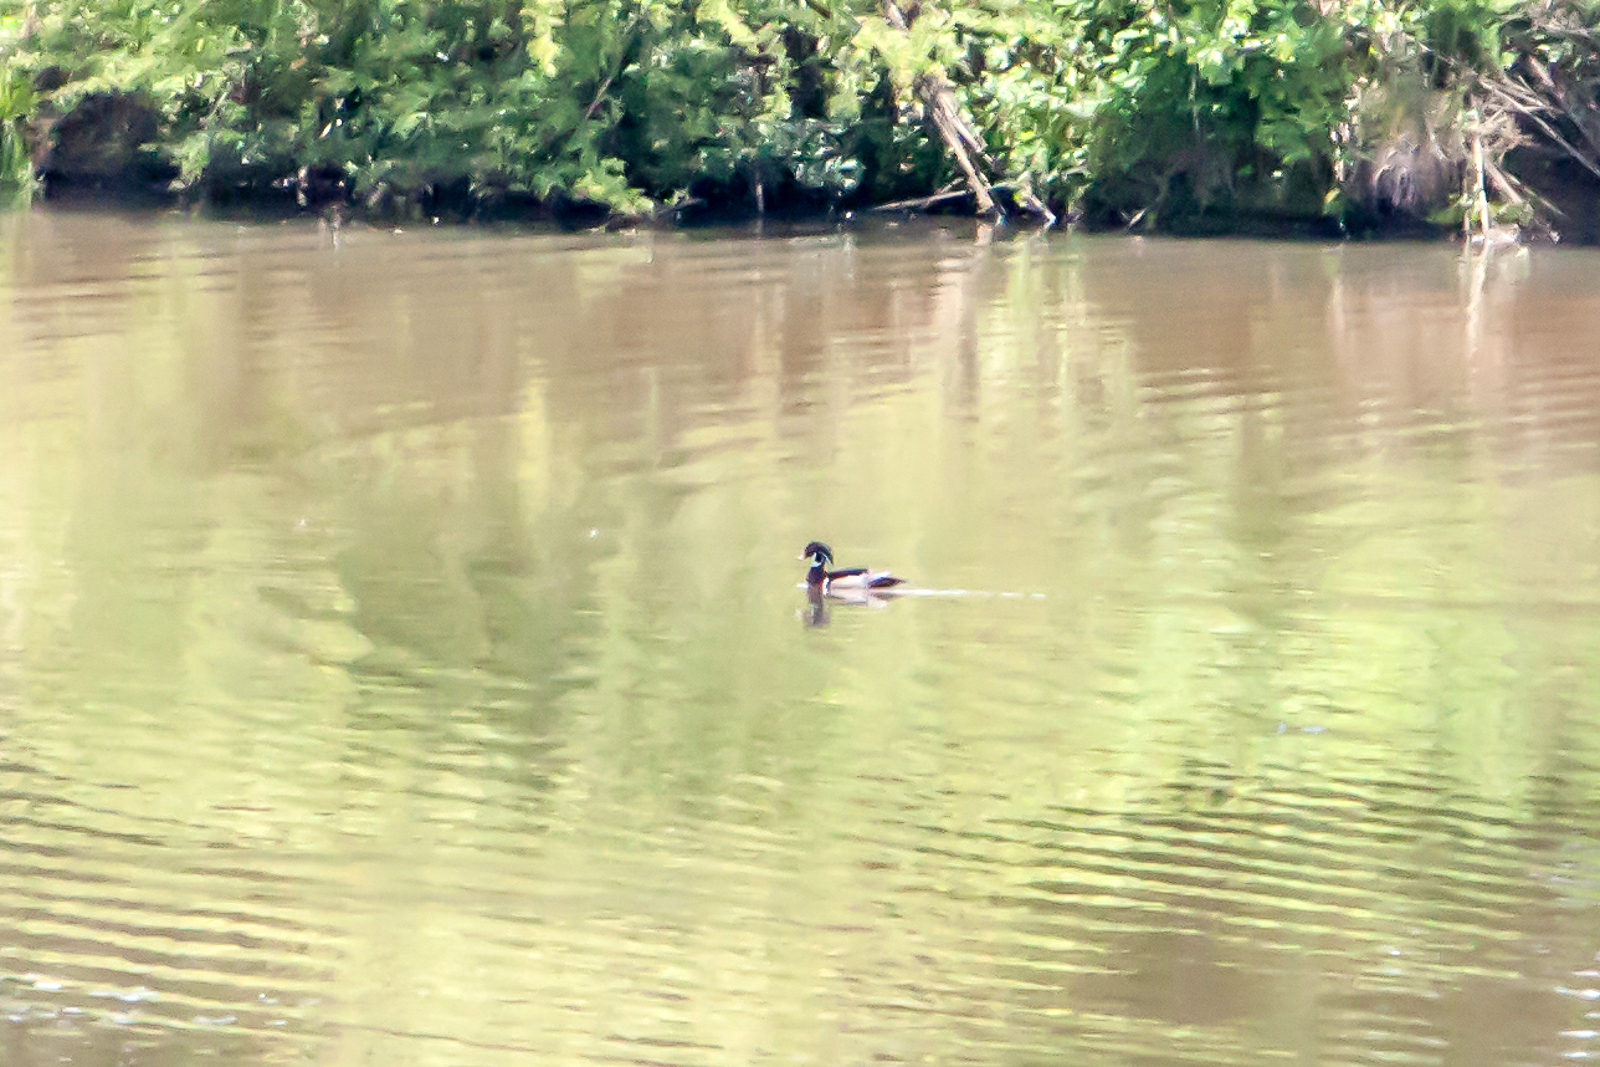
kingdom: Animalia
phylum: Chordata
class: Aves
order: Anseriformes
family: Anatidae
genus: Aix
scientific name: Aix sponsa
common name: Wood duck
